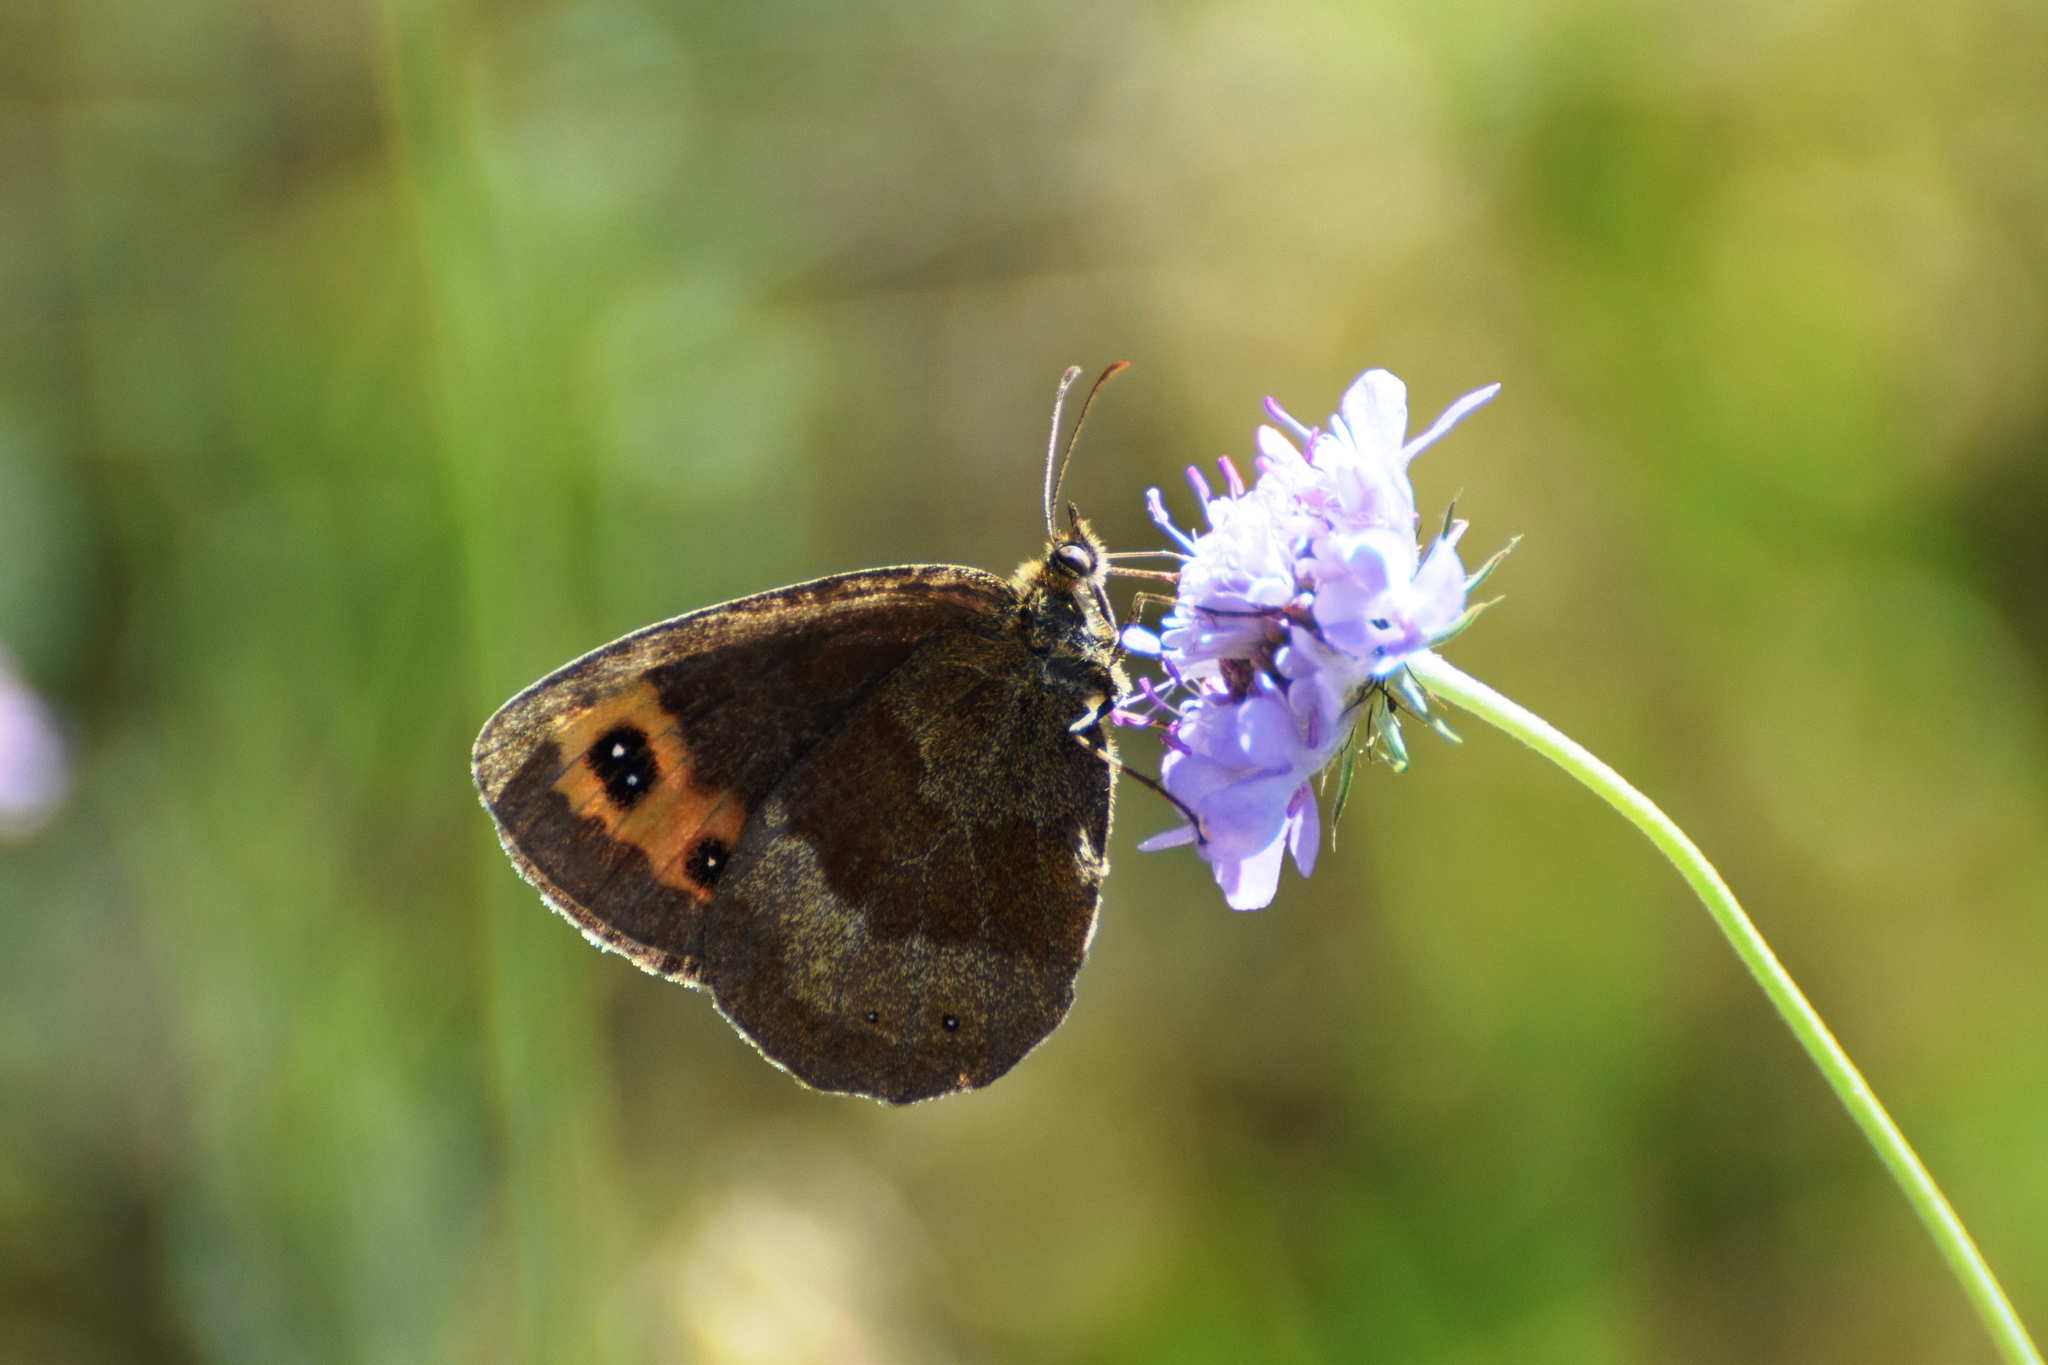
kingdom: Animalia
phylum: Arthropoda
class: Insecta
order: Lepidoptera
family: Nymphalidae
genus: Erebia
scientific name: Erebia aethiops
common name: Scotch argus
